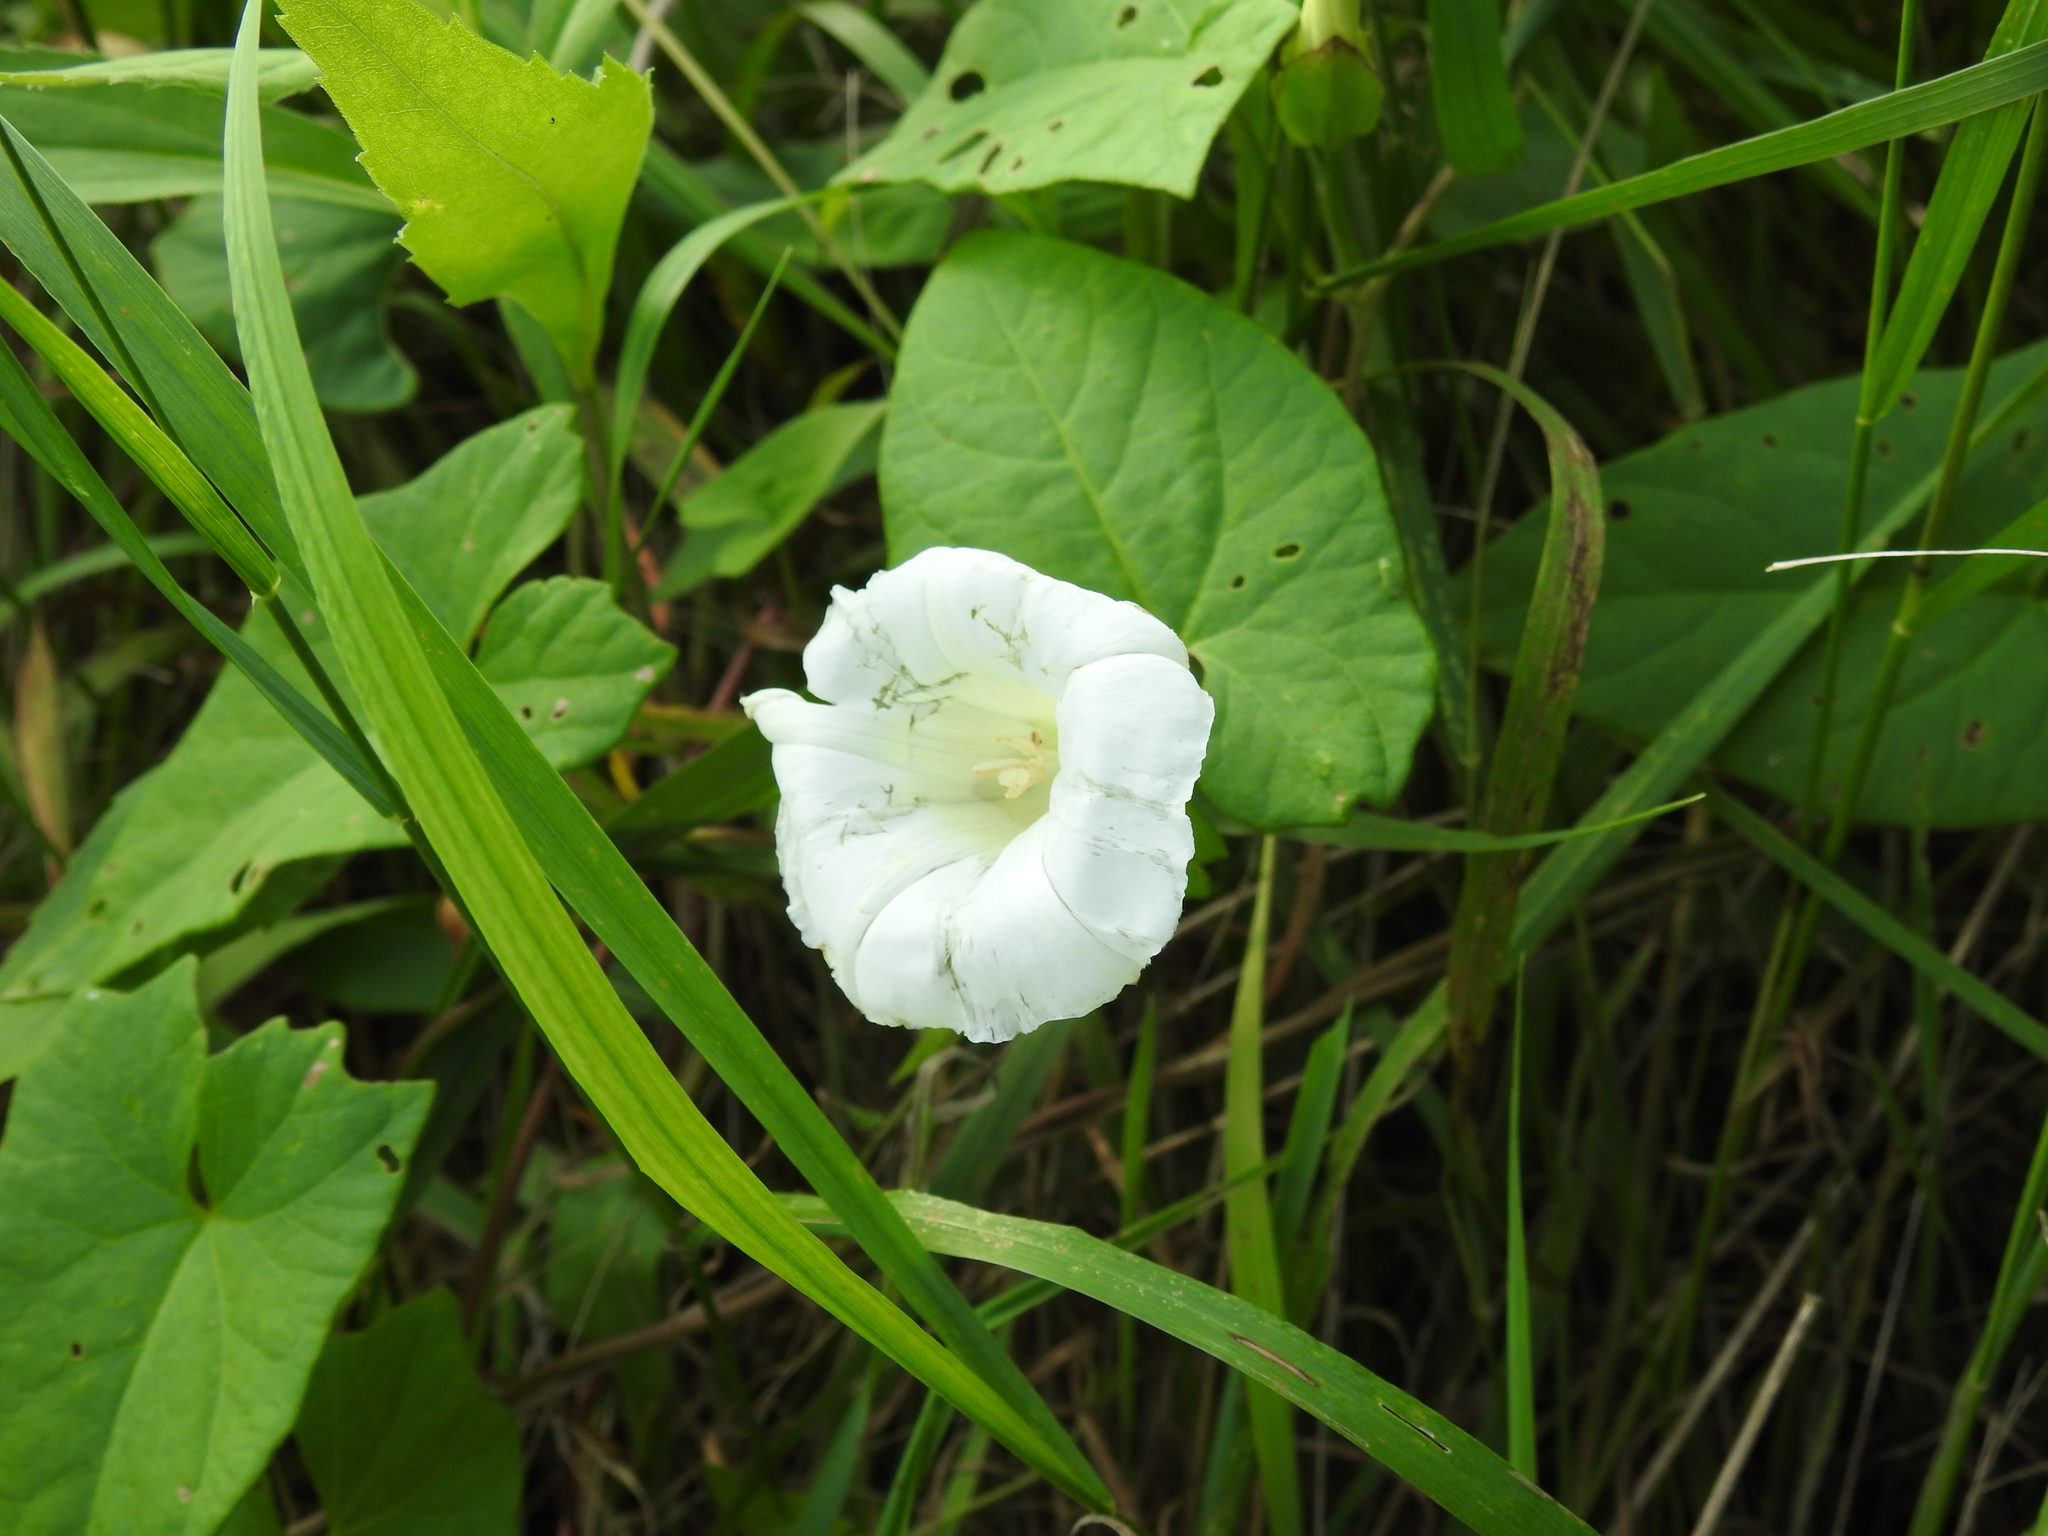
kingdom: Plantae
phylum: Tracheophyta
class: Magnoliopsida
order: Solanales
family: Convolvulaceae
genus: Calystegia
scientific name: Calystegia sepium
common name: Hedge bindweed
